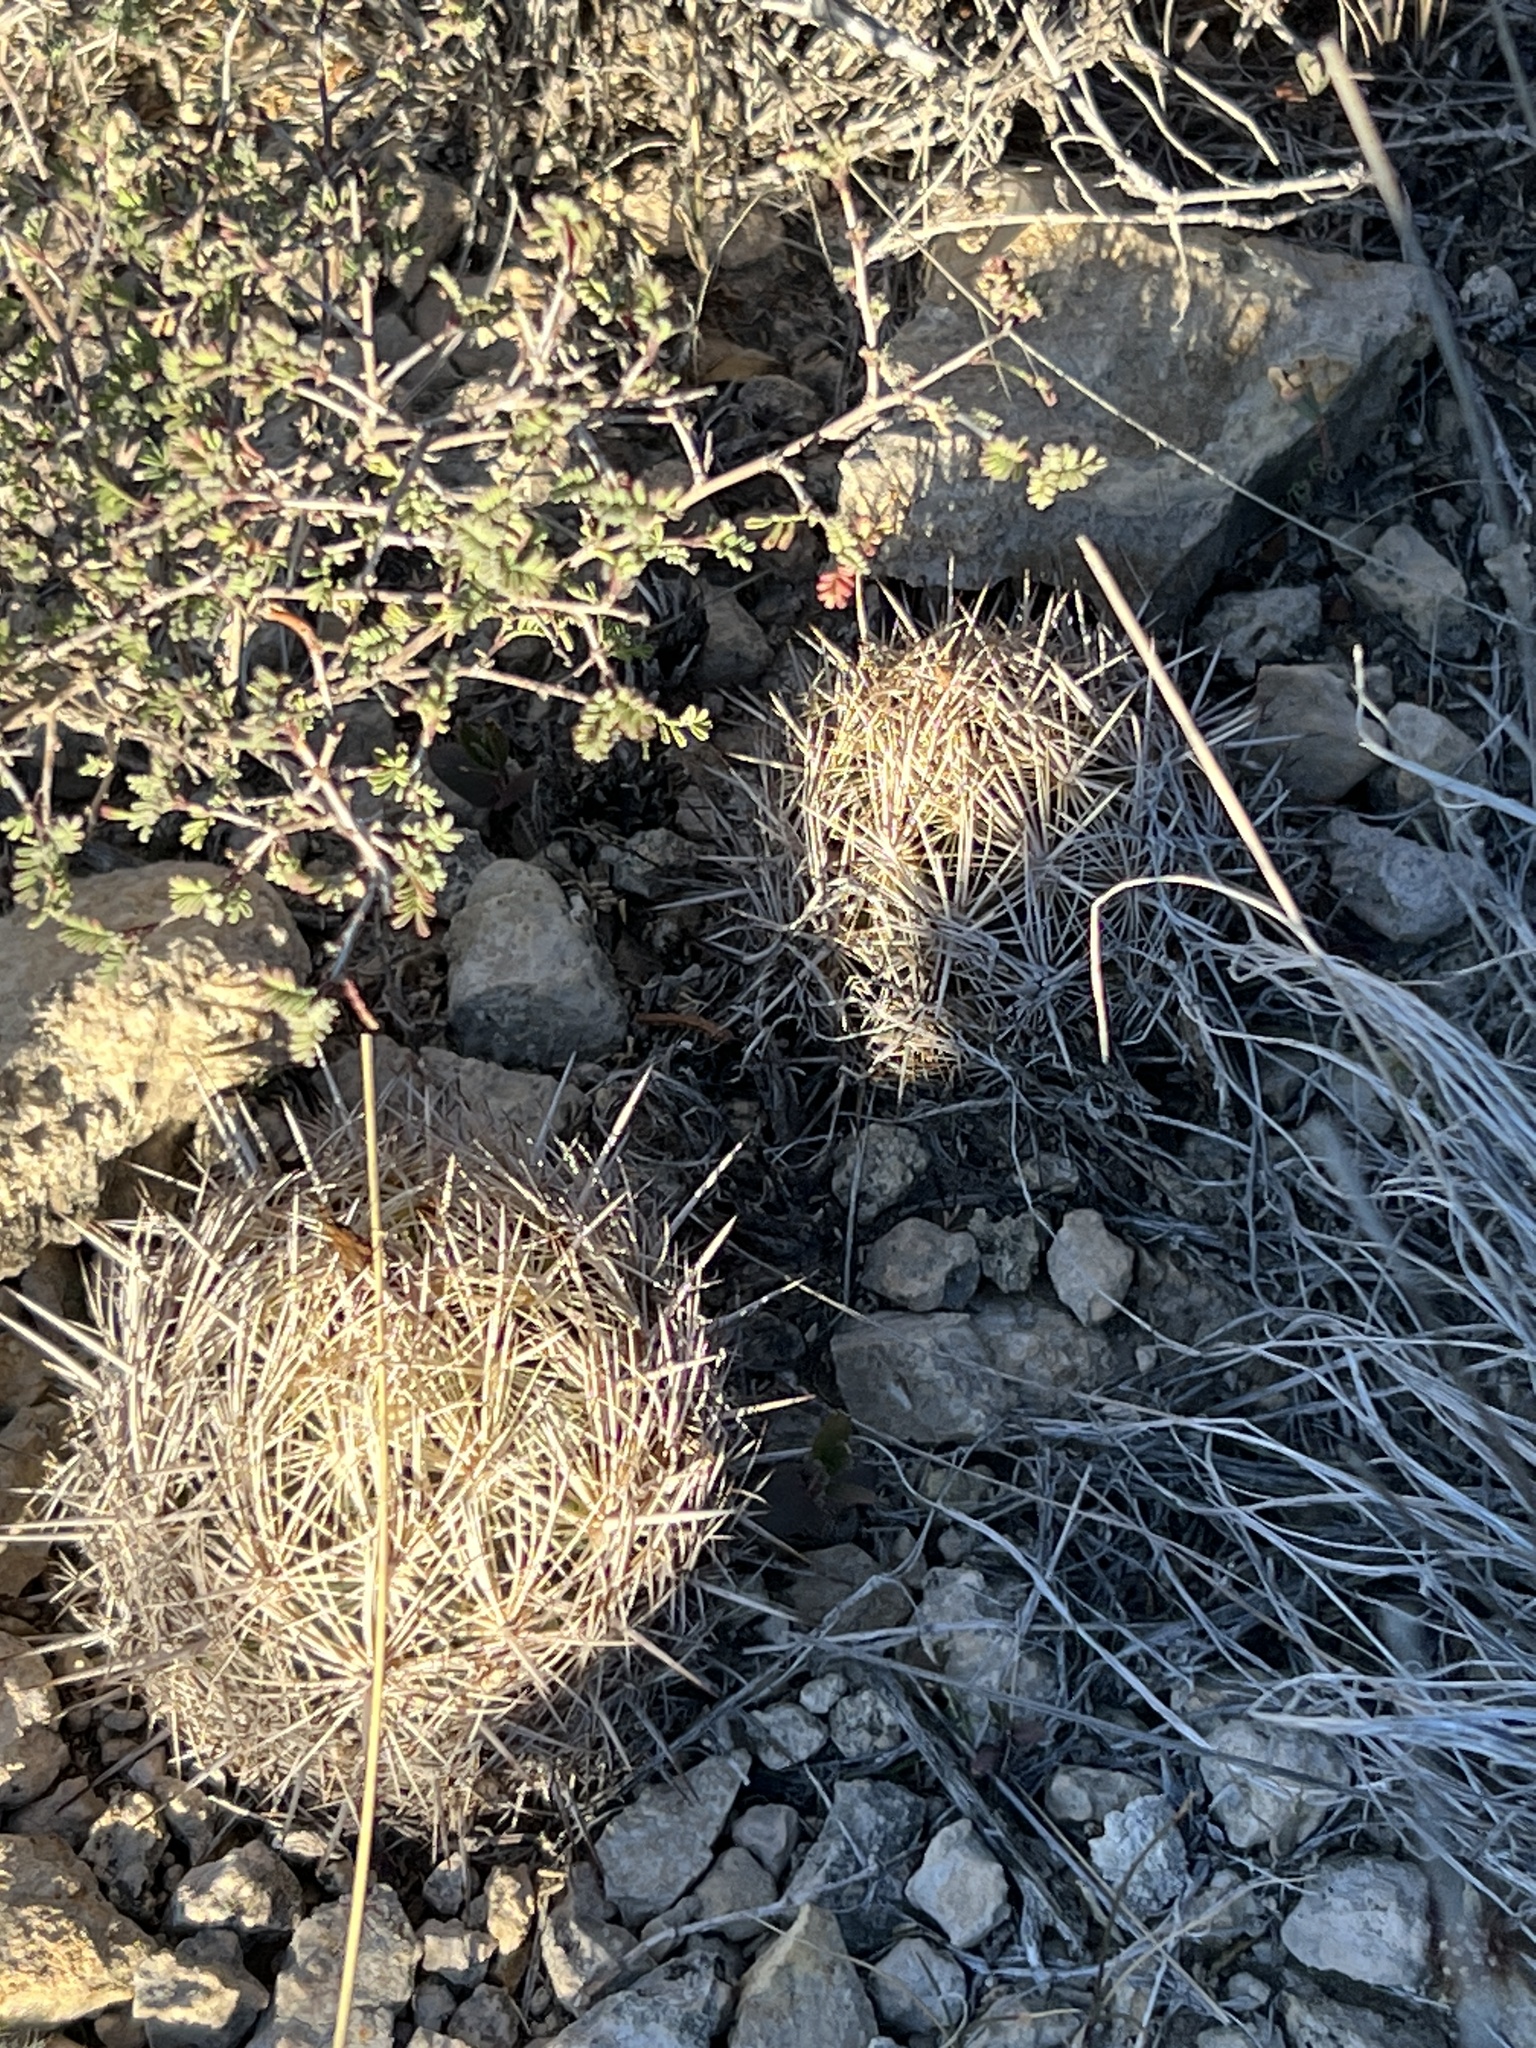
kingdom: Plantae
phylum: Tracheophyta
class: Magnoliopsida
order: Caryophyllales
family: Cactaceae
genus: Coryphantha
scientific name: Coryphantha echinus
